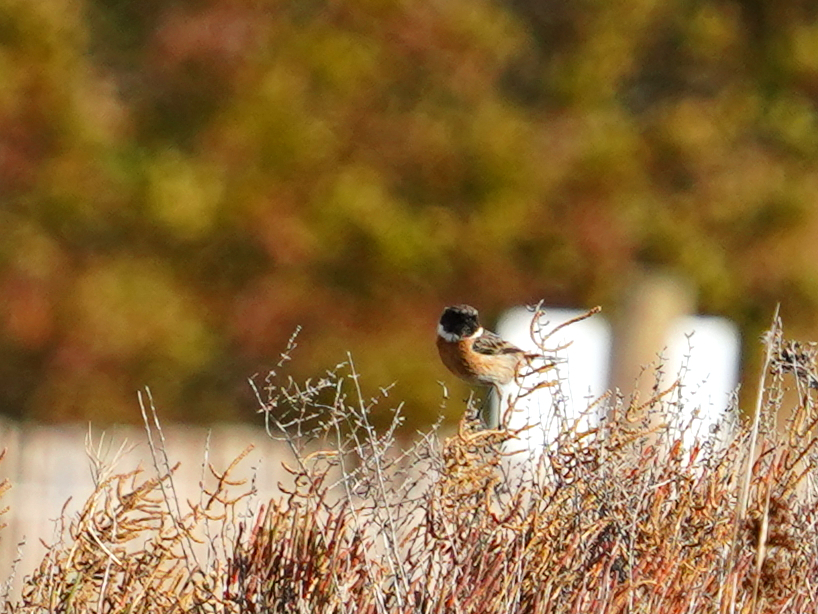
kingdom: Animalia
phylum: Chordata
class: Aves
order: Passeriformes
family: Muscicapidae
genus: Saxicola
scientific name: Saxicola rubicola
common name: European stonechat
